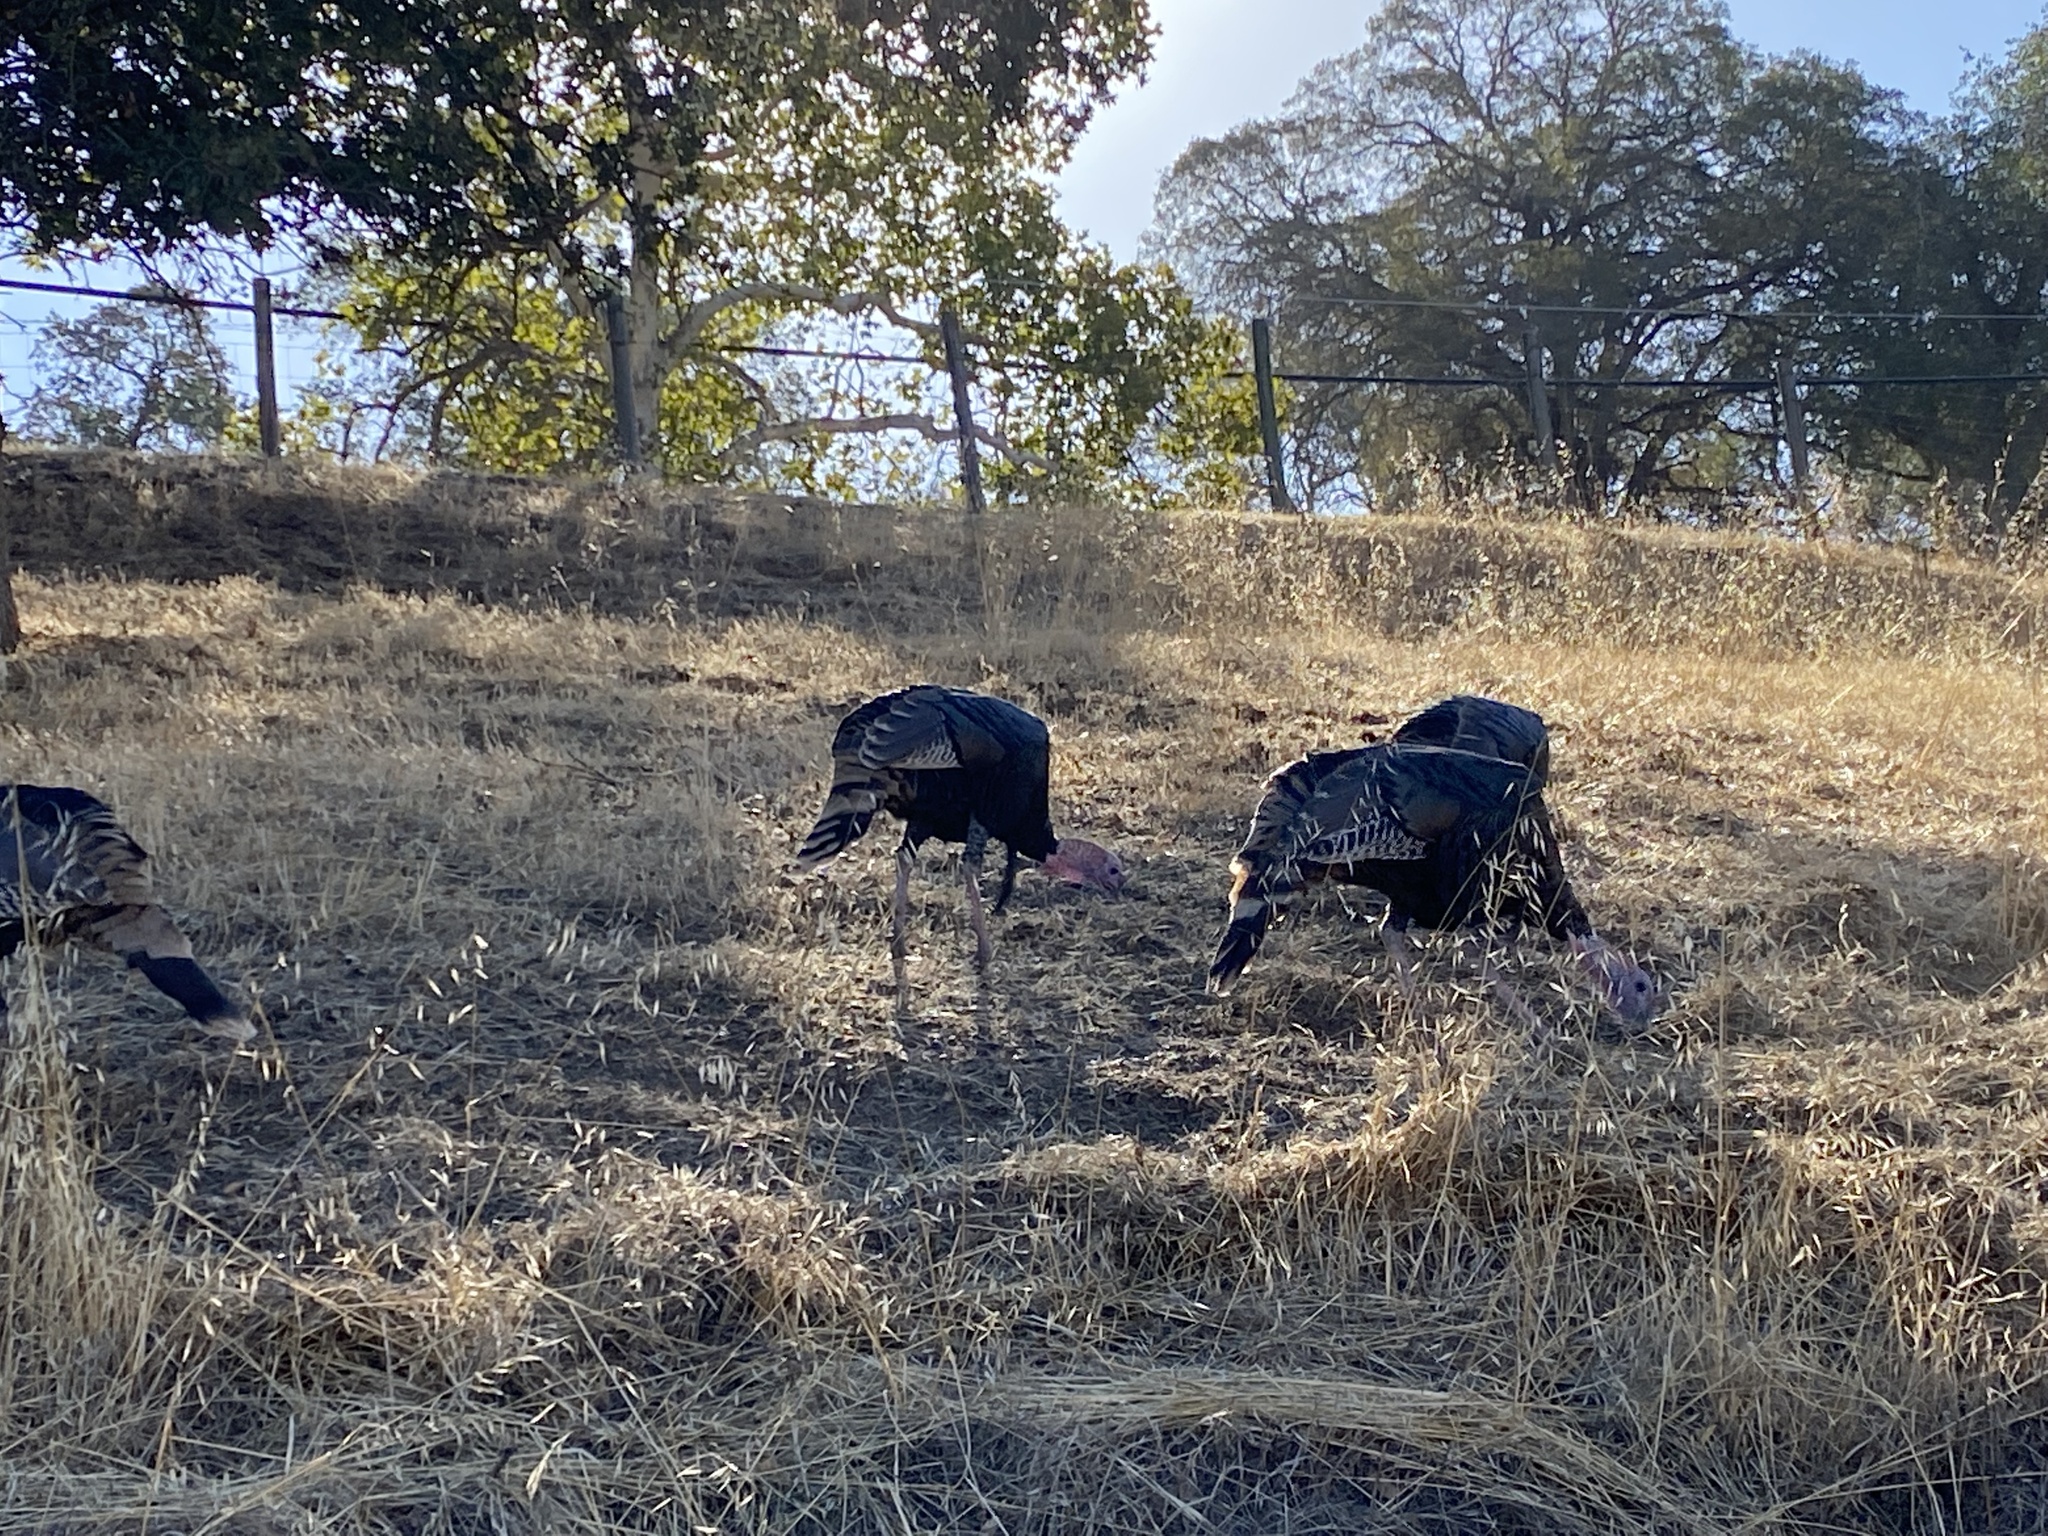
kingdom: Animalia
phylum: Chordata
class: Aves
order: Galliformes
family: Phasianidae
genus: Meleagris
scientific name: Meleagris gallopavo
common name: Wild turkey
